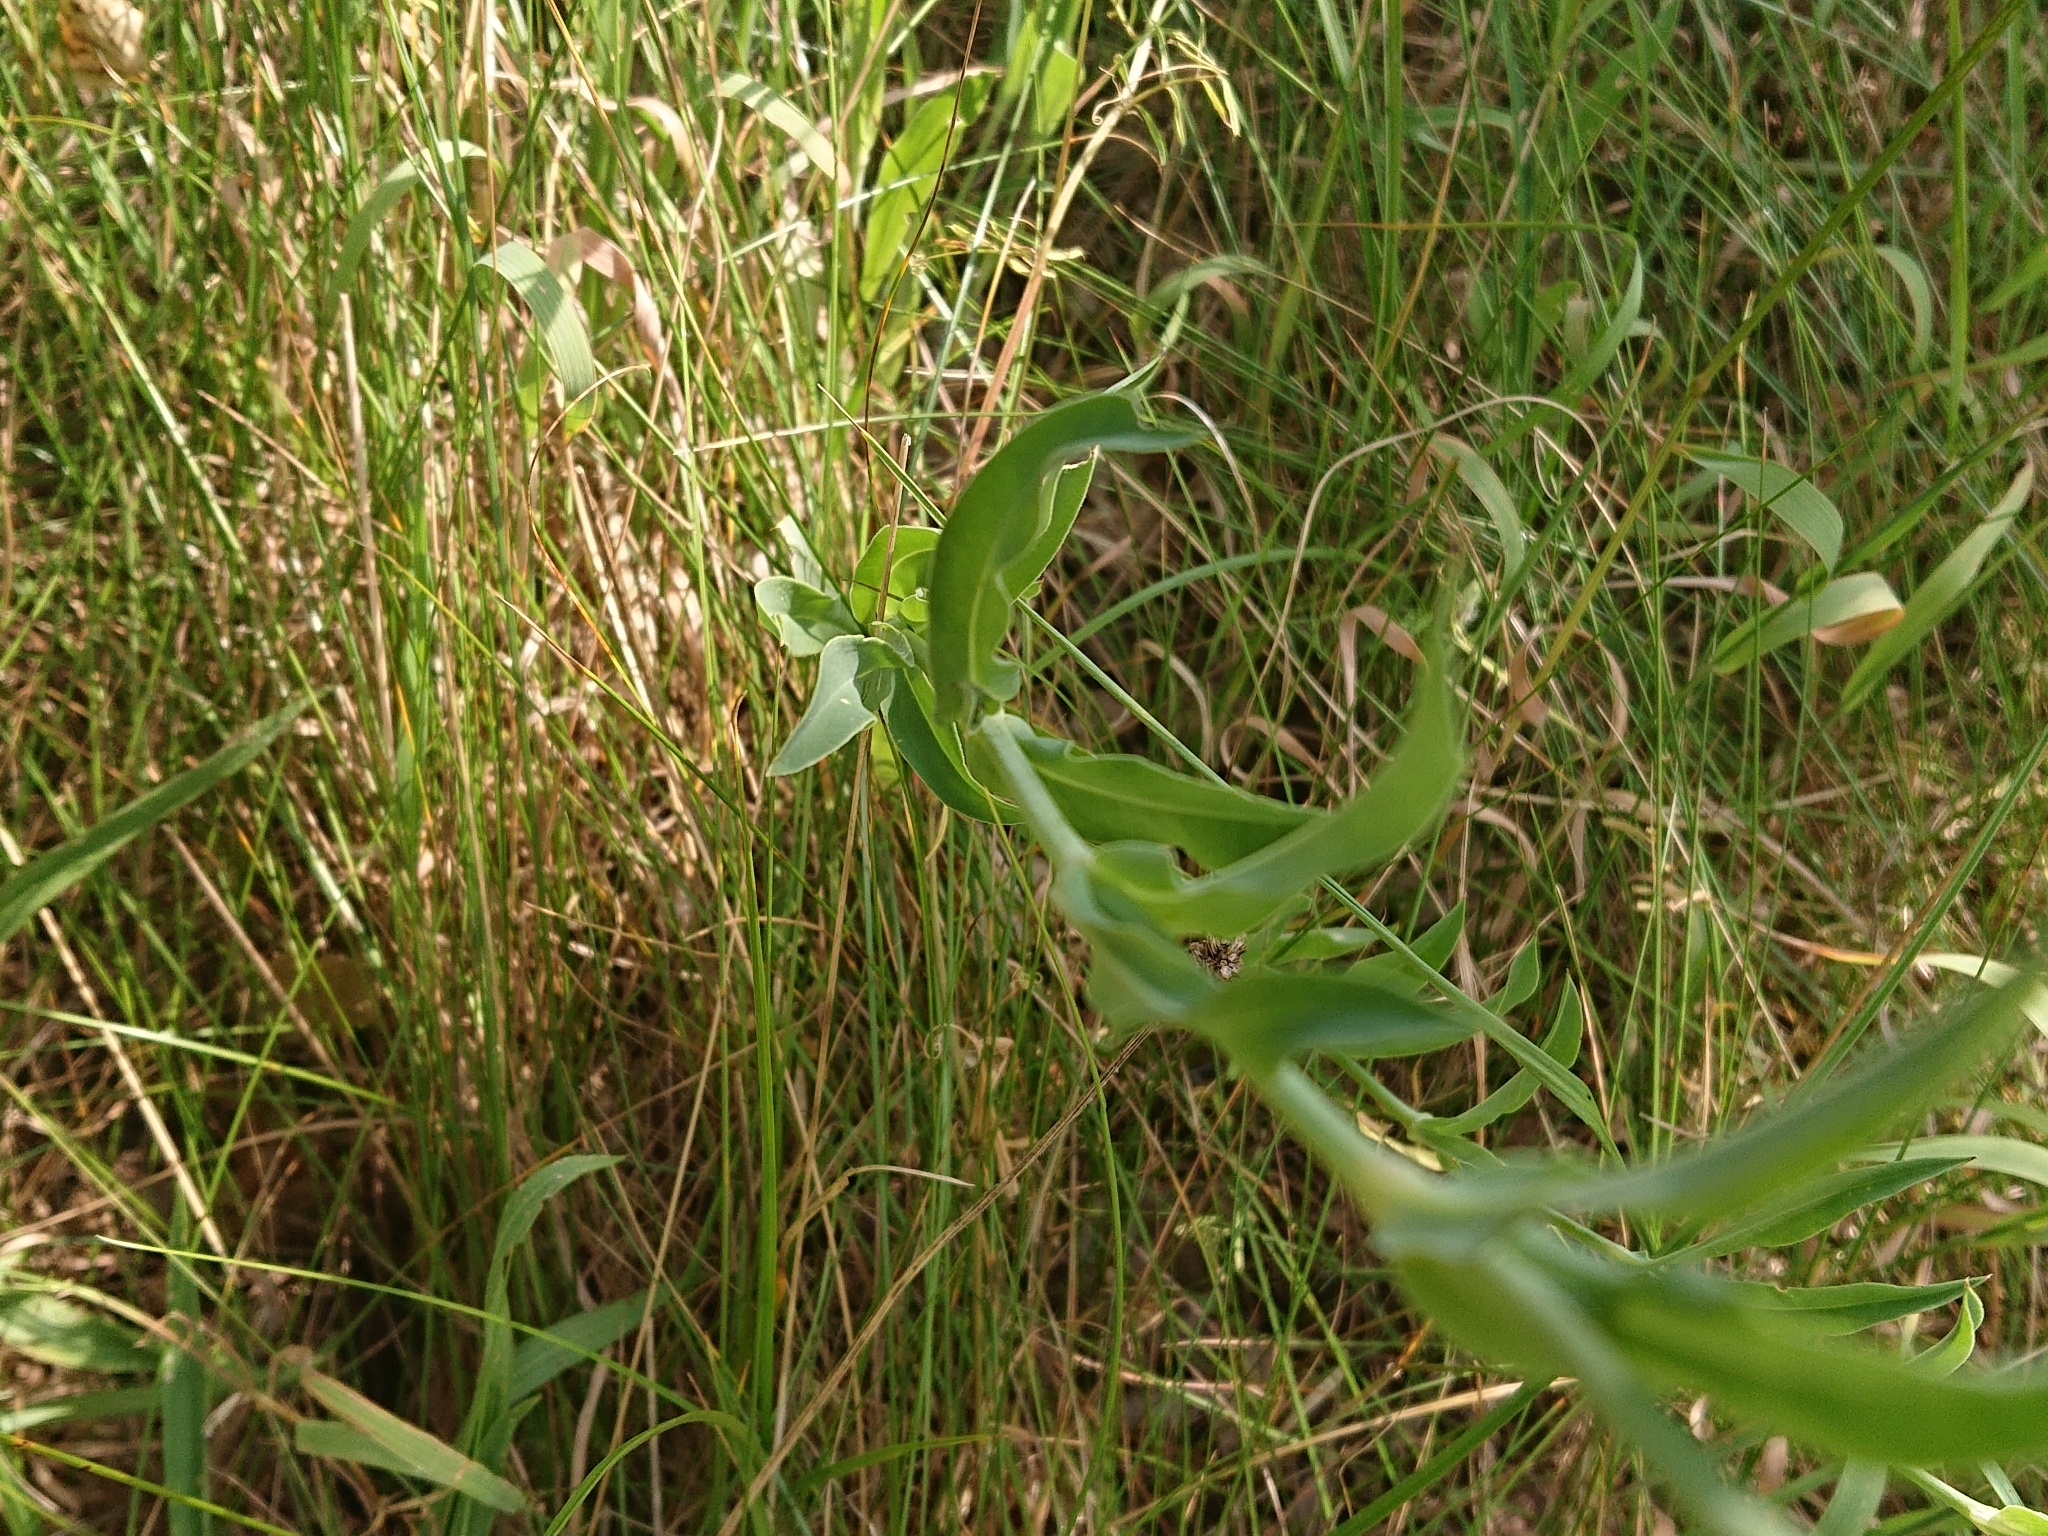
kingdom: Plantae
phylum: Tracheophyta
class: Magnoliopsida
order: Caryophyllales
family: Caryophyllaceae
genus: Silene
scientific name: Silene vulgaris
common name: Bladder campion
